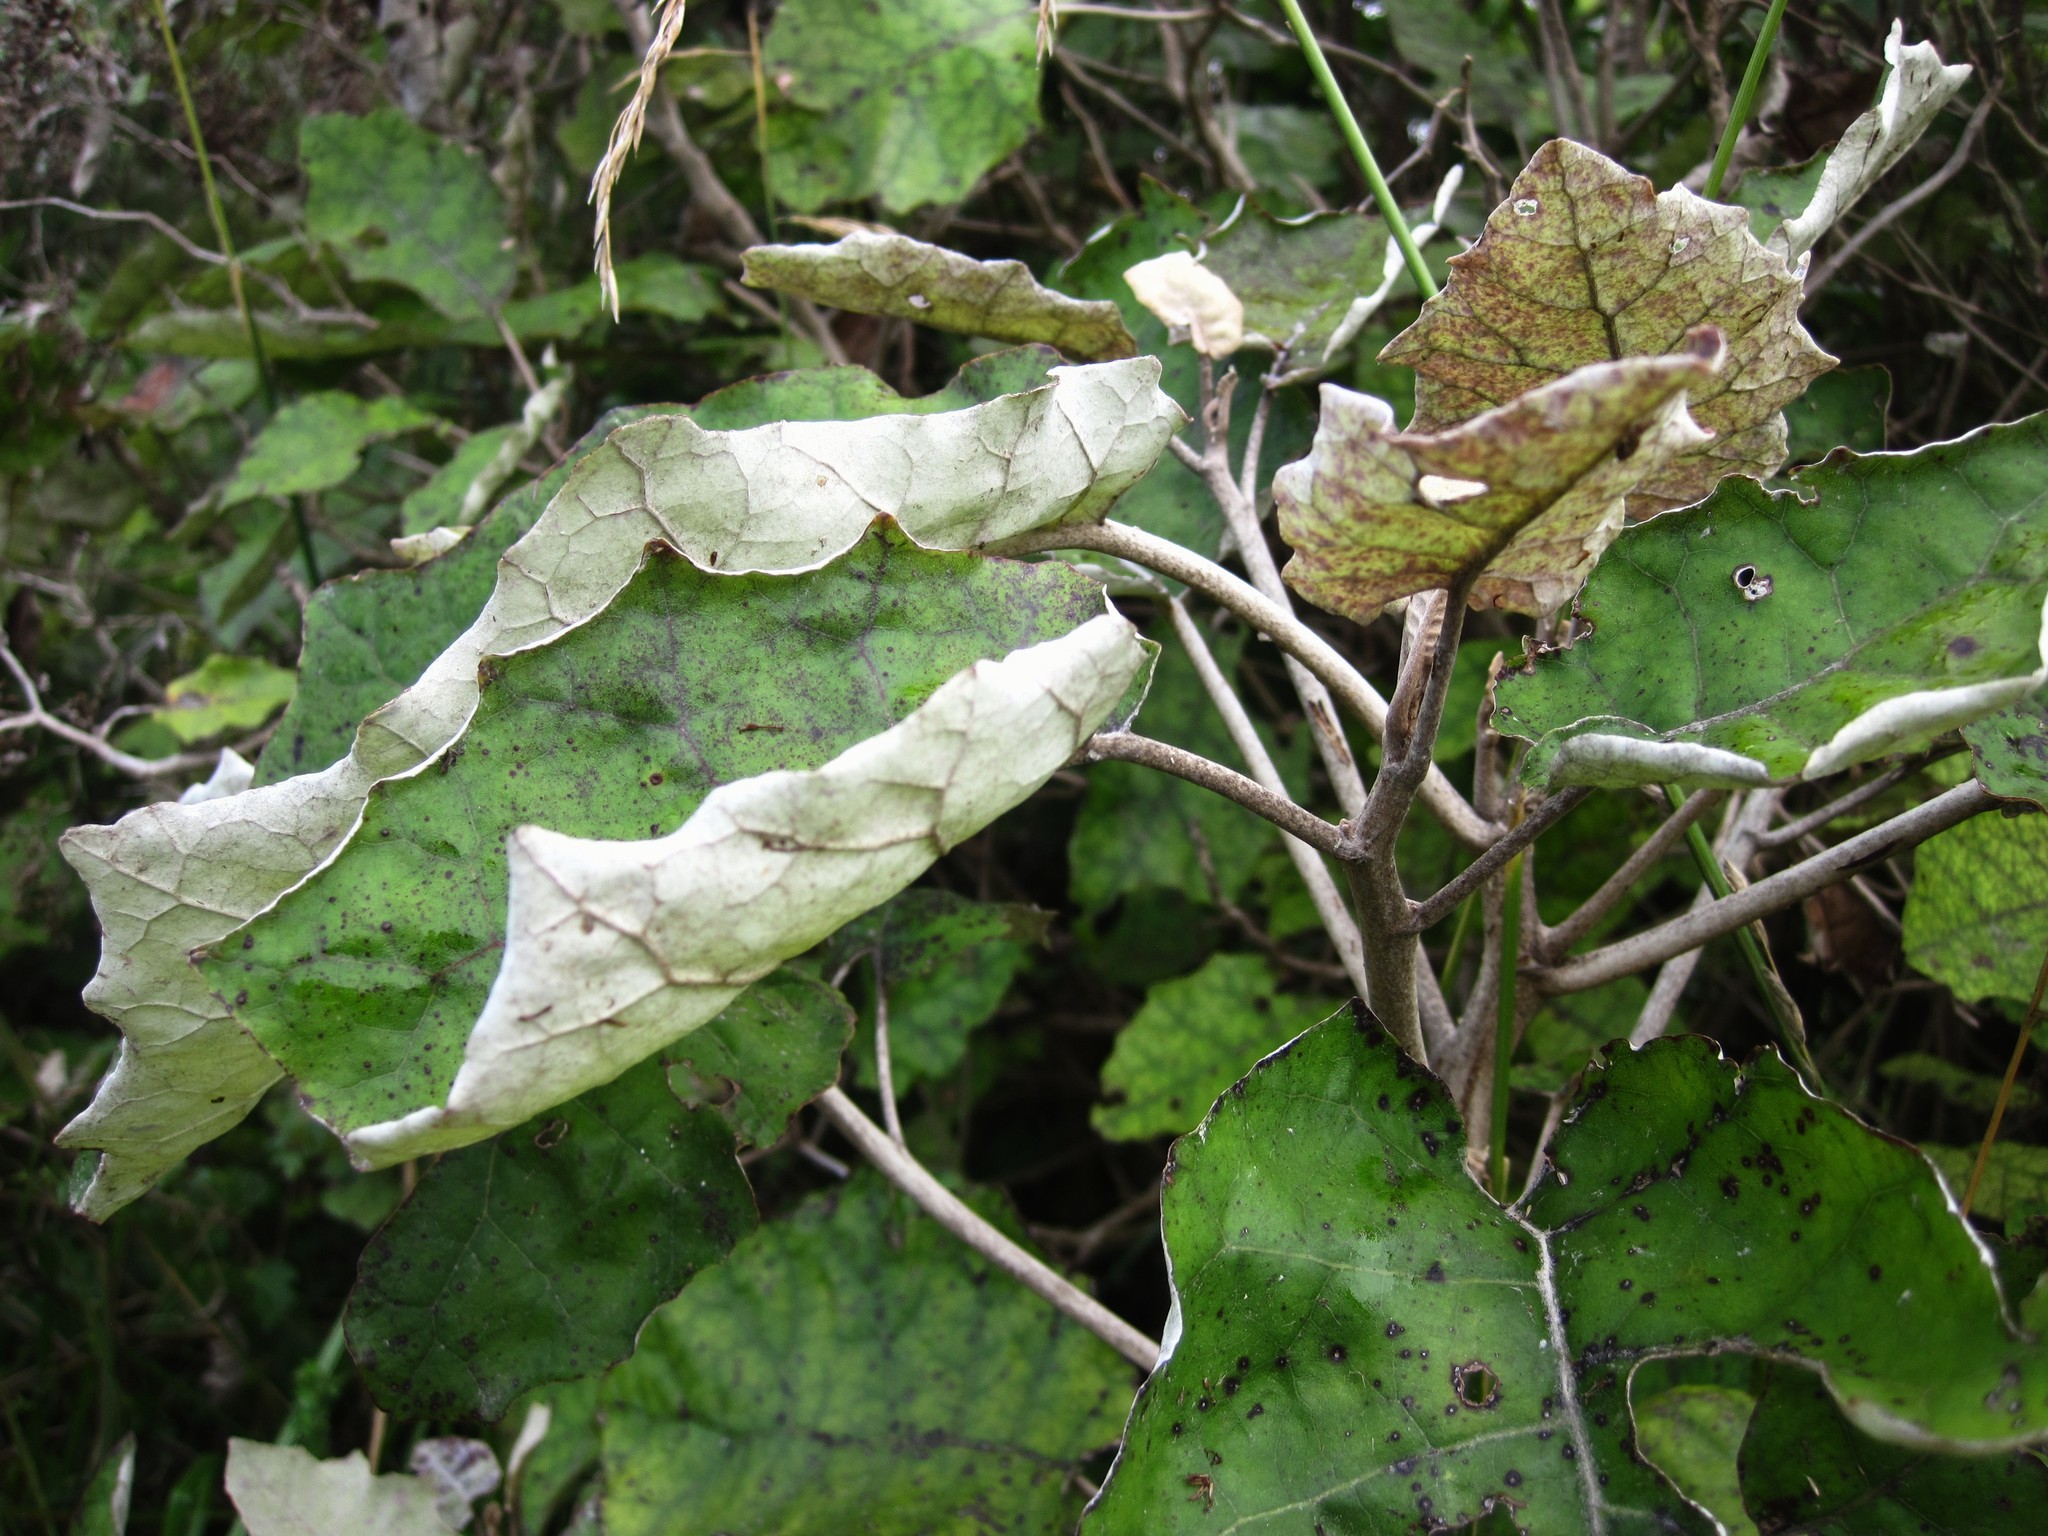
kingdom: Plantae
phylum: Tracheophyta
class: Magnoliopsida
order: Asterales
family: Asteraceae
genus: Brachyglottis
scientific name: Brachyglottis repanda
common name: Hedge ragwort
